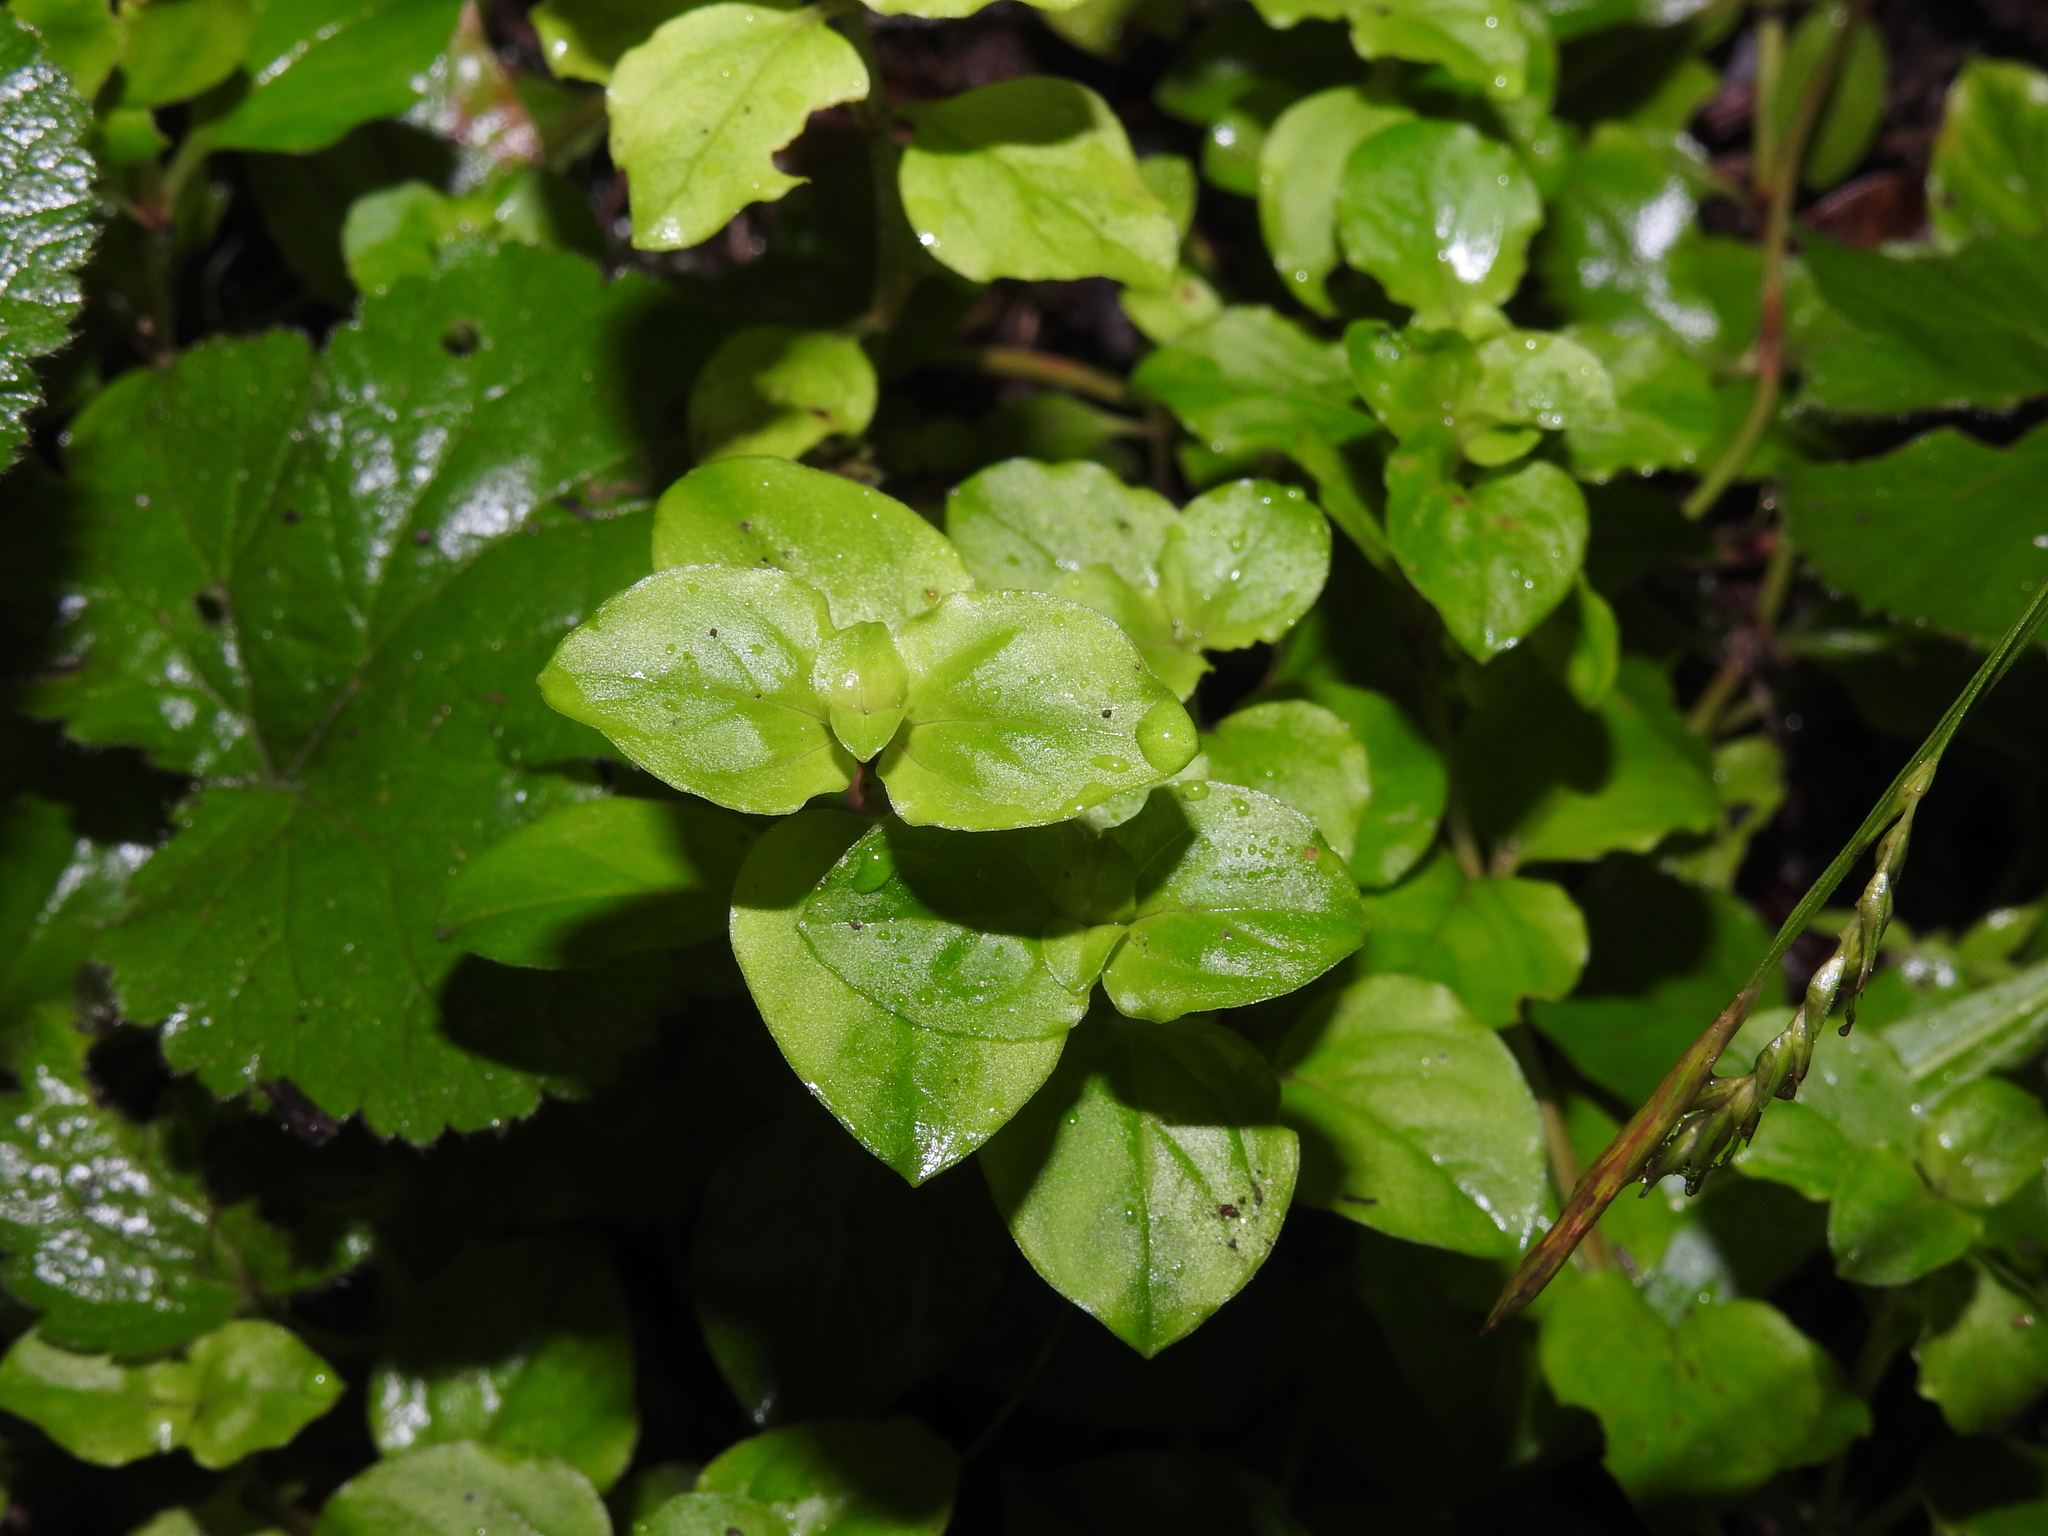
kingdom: Plantae
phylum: Tracheophyta
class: Magnoliopsida
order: Ericales
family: Primulaceae
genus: Lysimachia
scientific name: Lysimachia nemorum
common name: Yellow pimpernel
